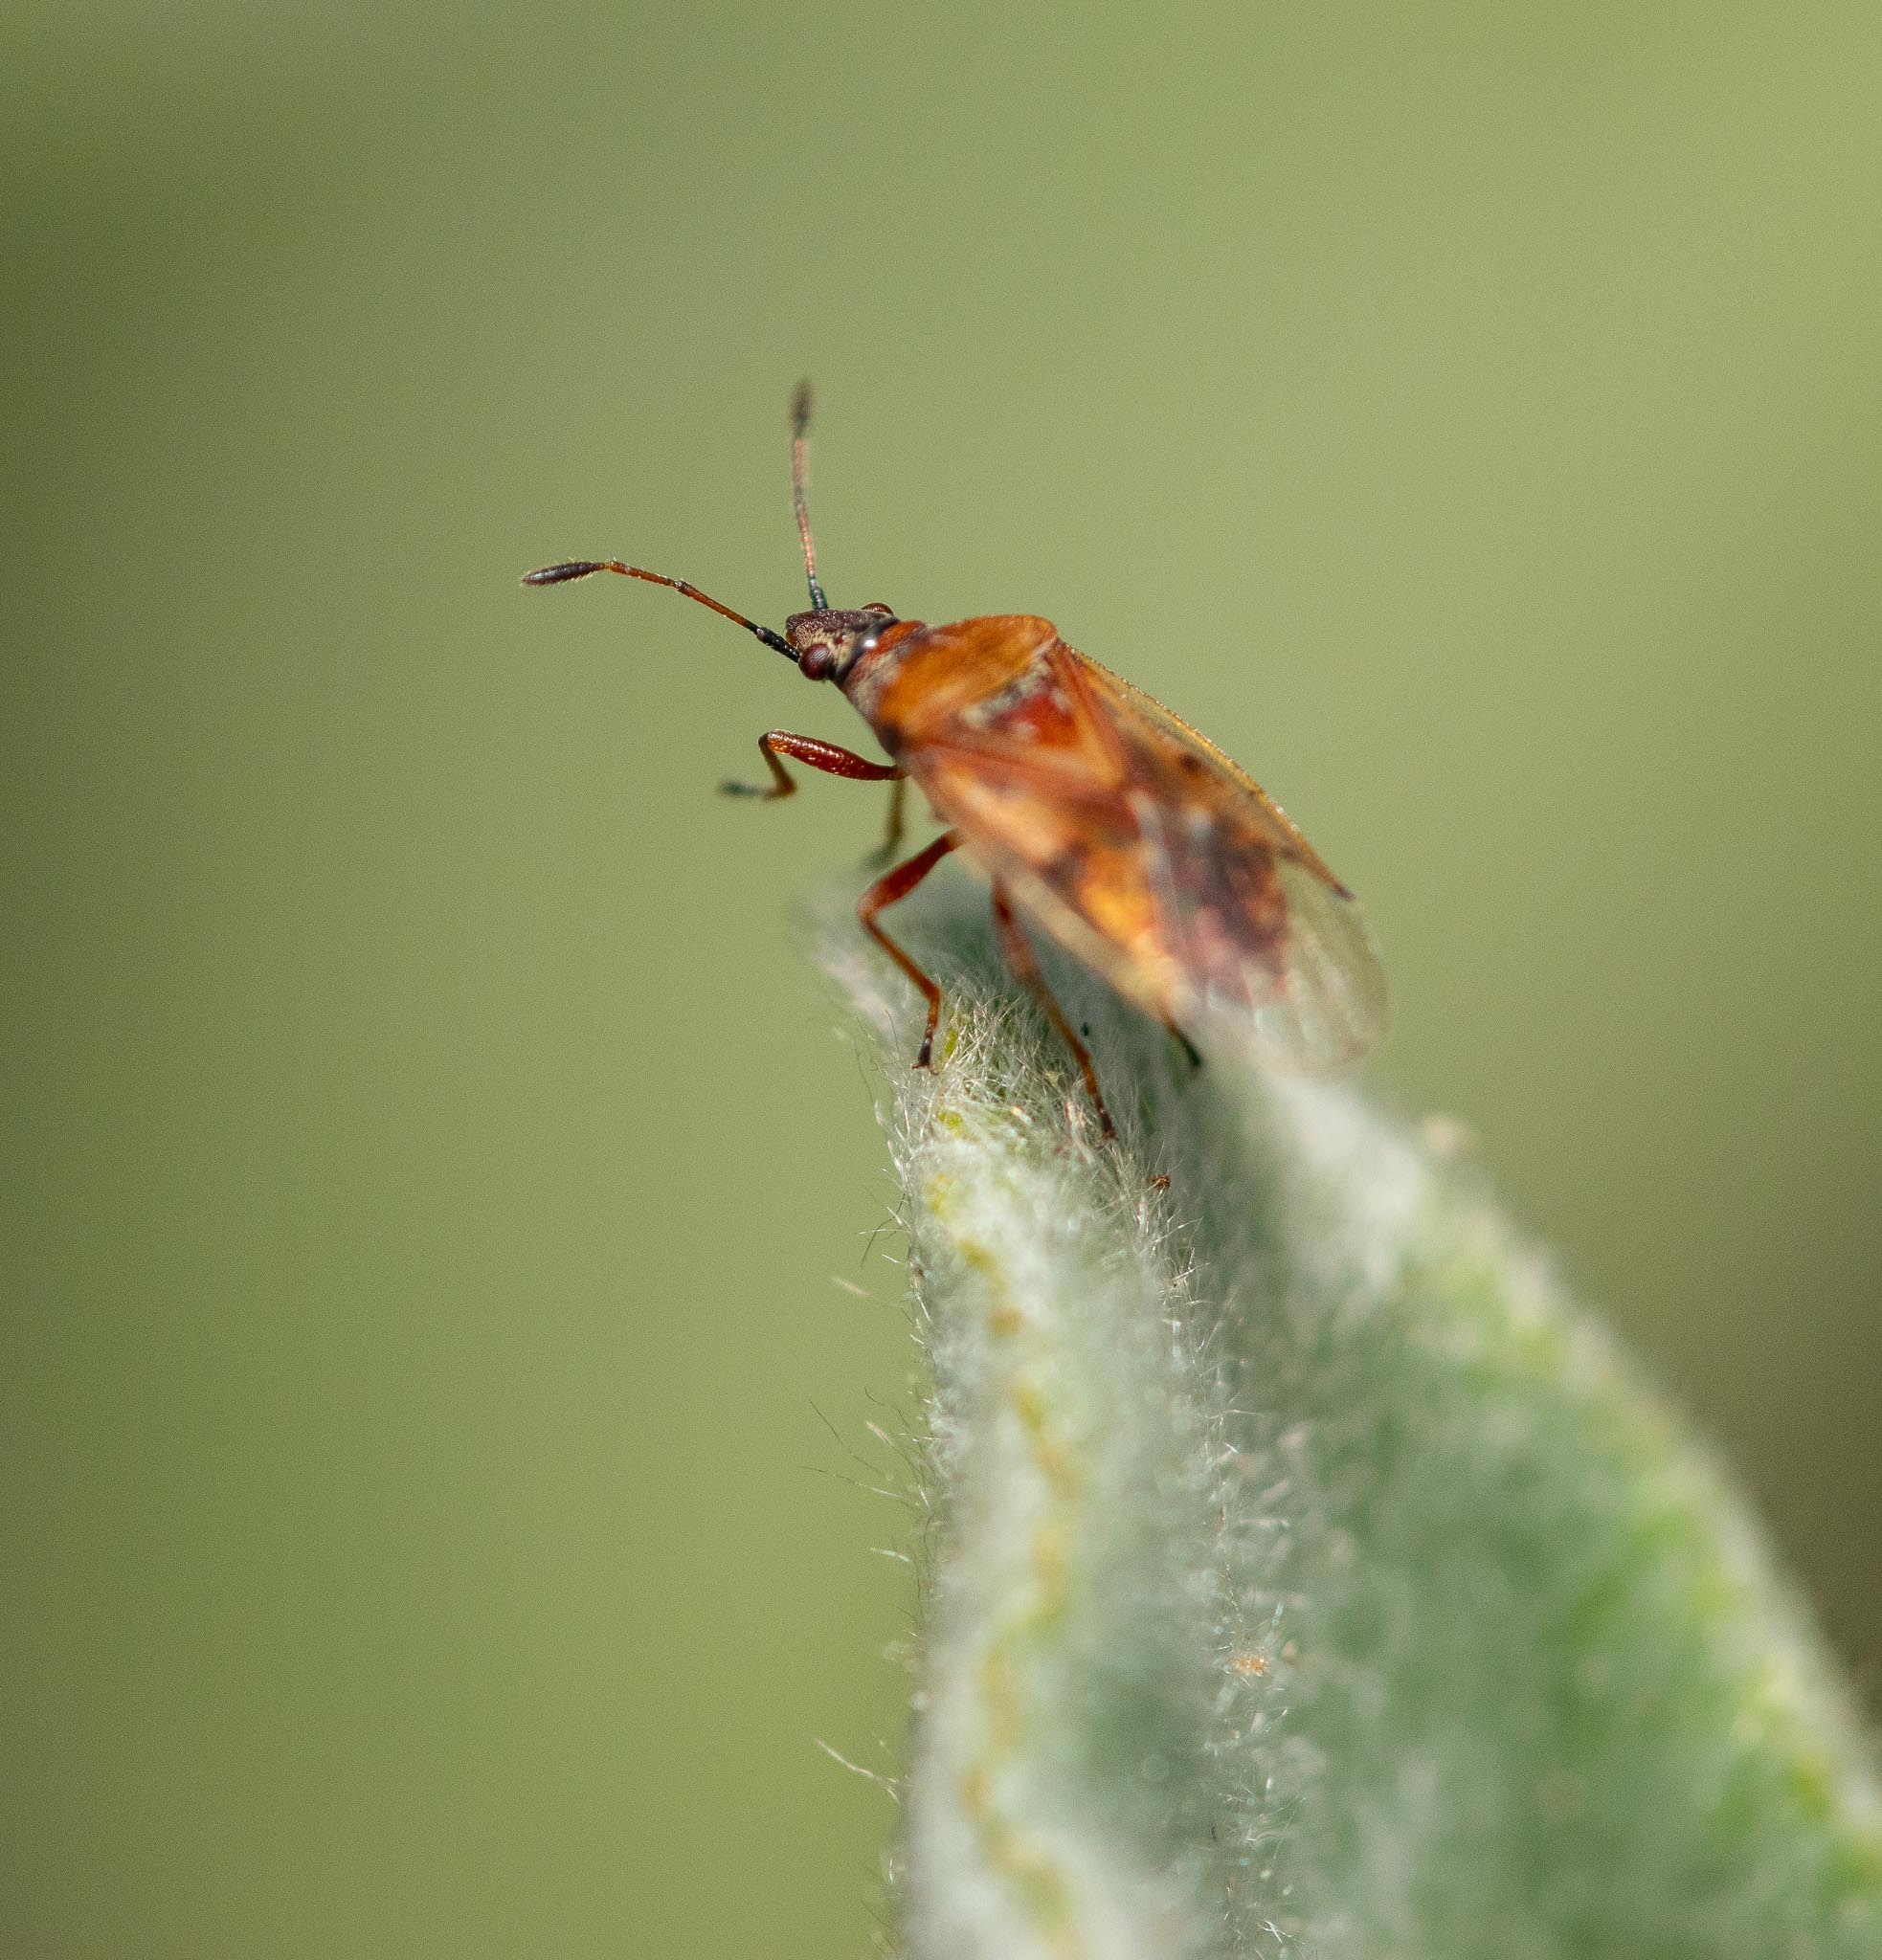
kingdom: Animalia
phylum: Arthropoda
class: Insecta
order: Hemiptera
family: Lygaeidae
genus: Kleidocerys
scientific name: Kleidocerys resedae
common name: Birch catkin bug
